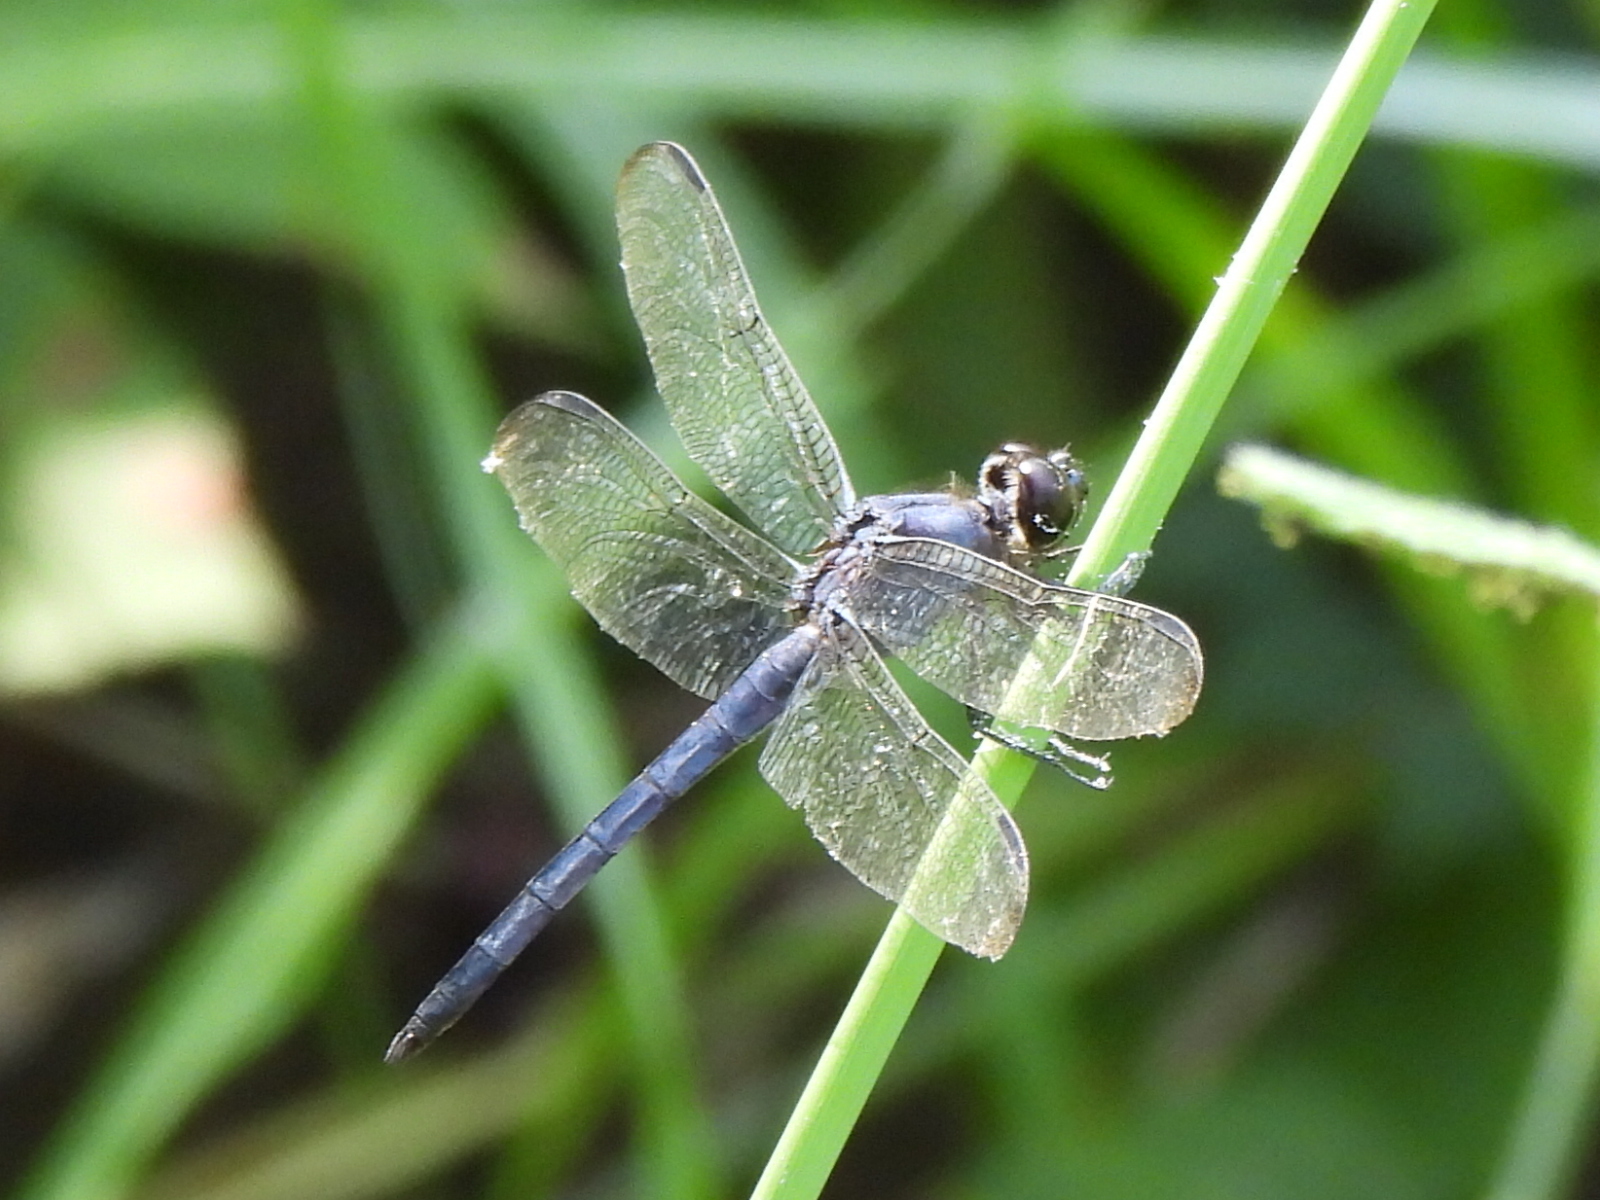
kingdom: Animalia
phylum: Arthropoda
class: Insecta
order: Odonata
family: Libellulidae
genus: Libellula
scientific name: Libellula incesta
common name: Slaty skimmer
